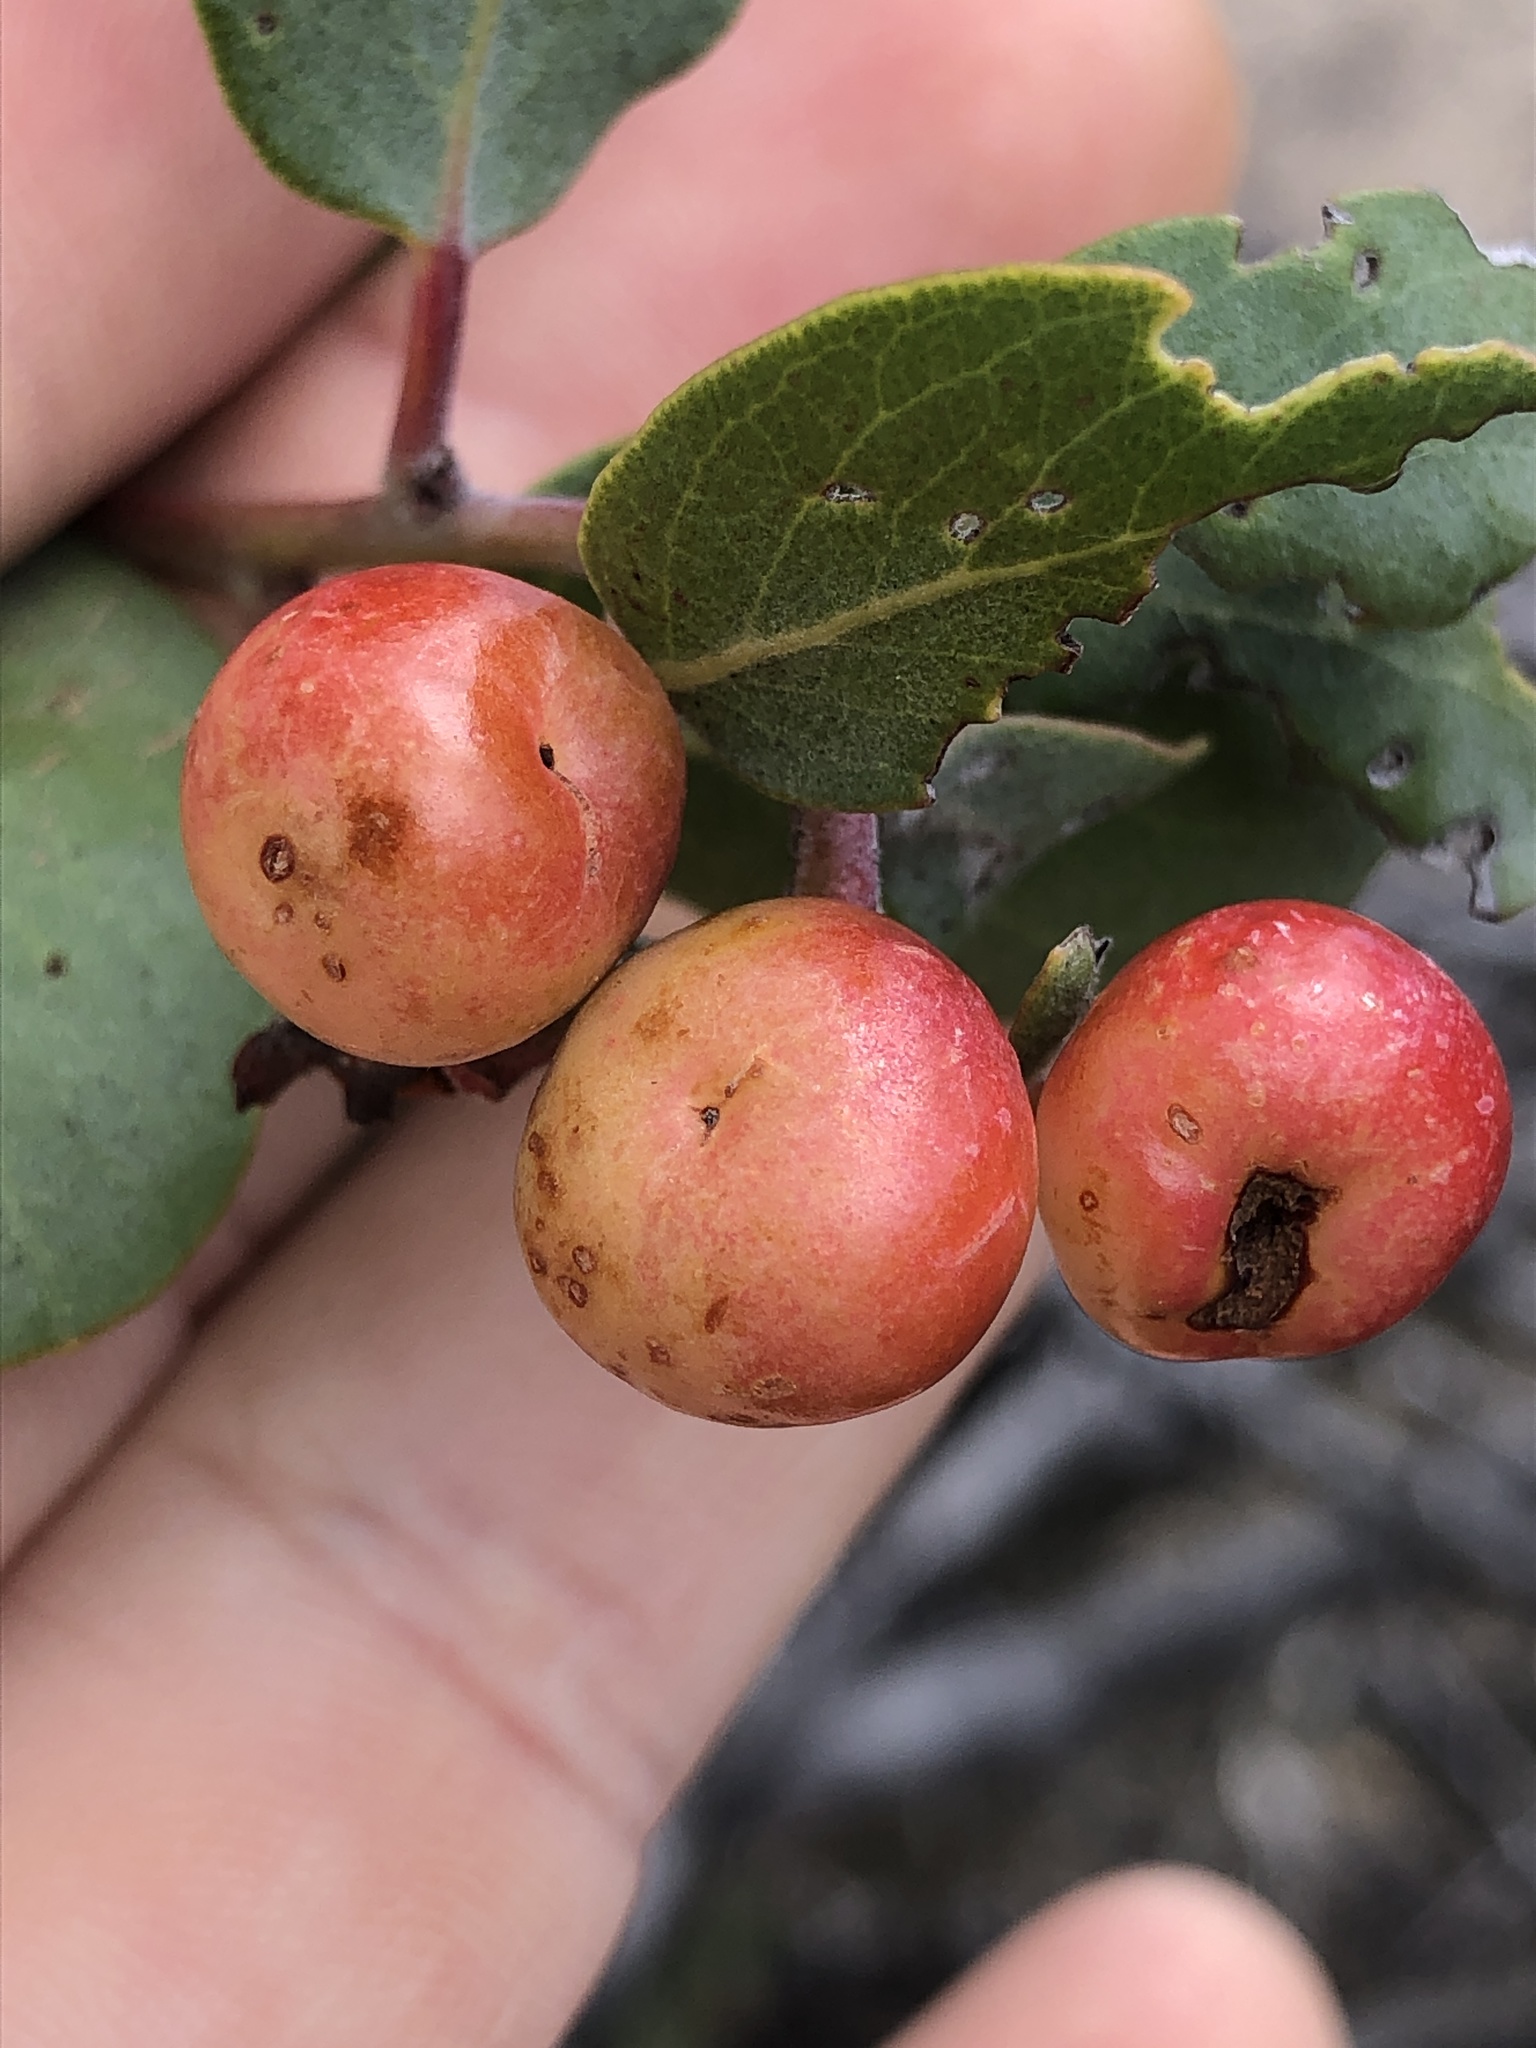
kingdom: Plantae
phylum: Tracheophyta
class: Magnoliopsida
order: Ericales
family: Ericaceae
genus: Arctostaphylos
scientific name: Arctostaphylos silvicola
